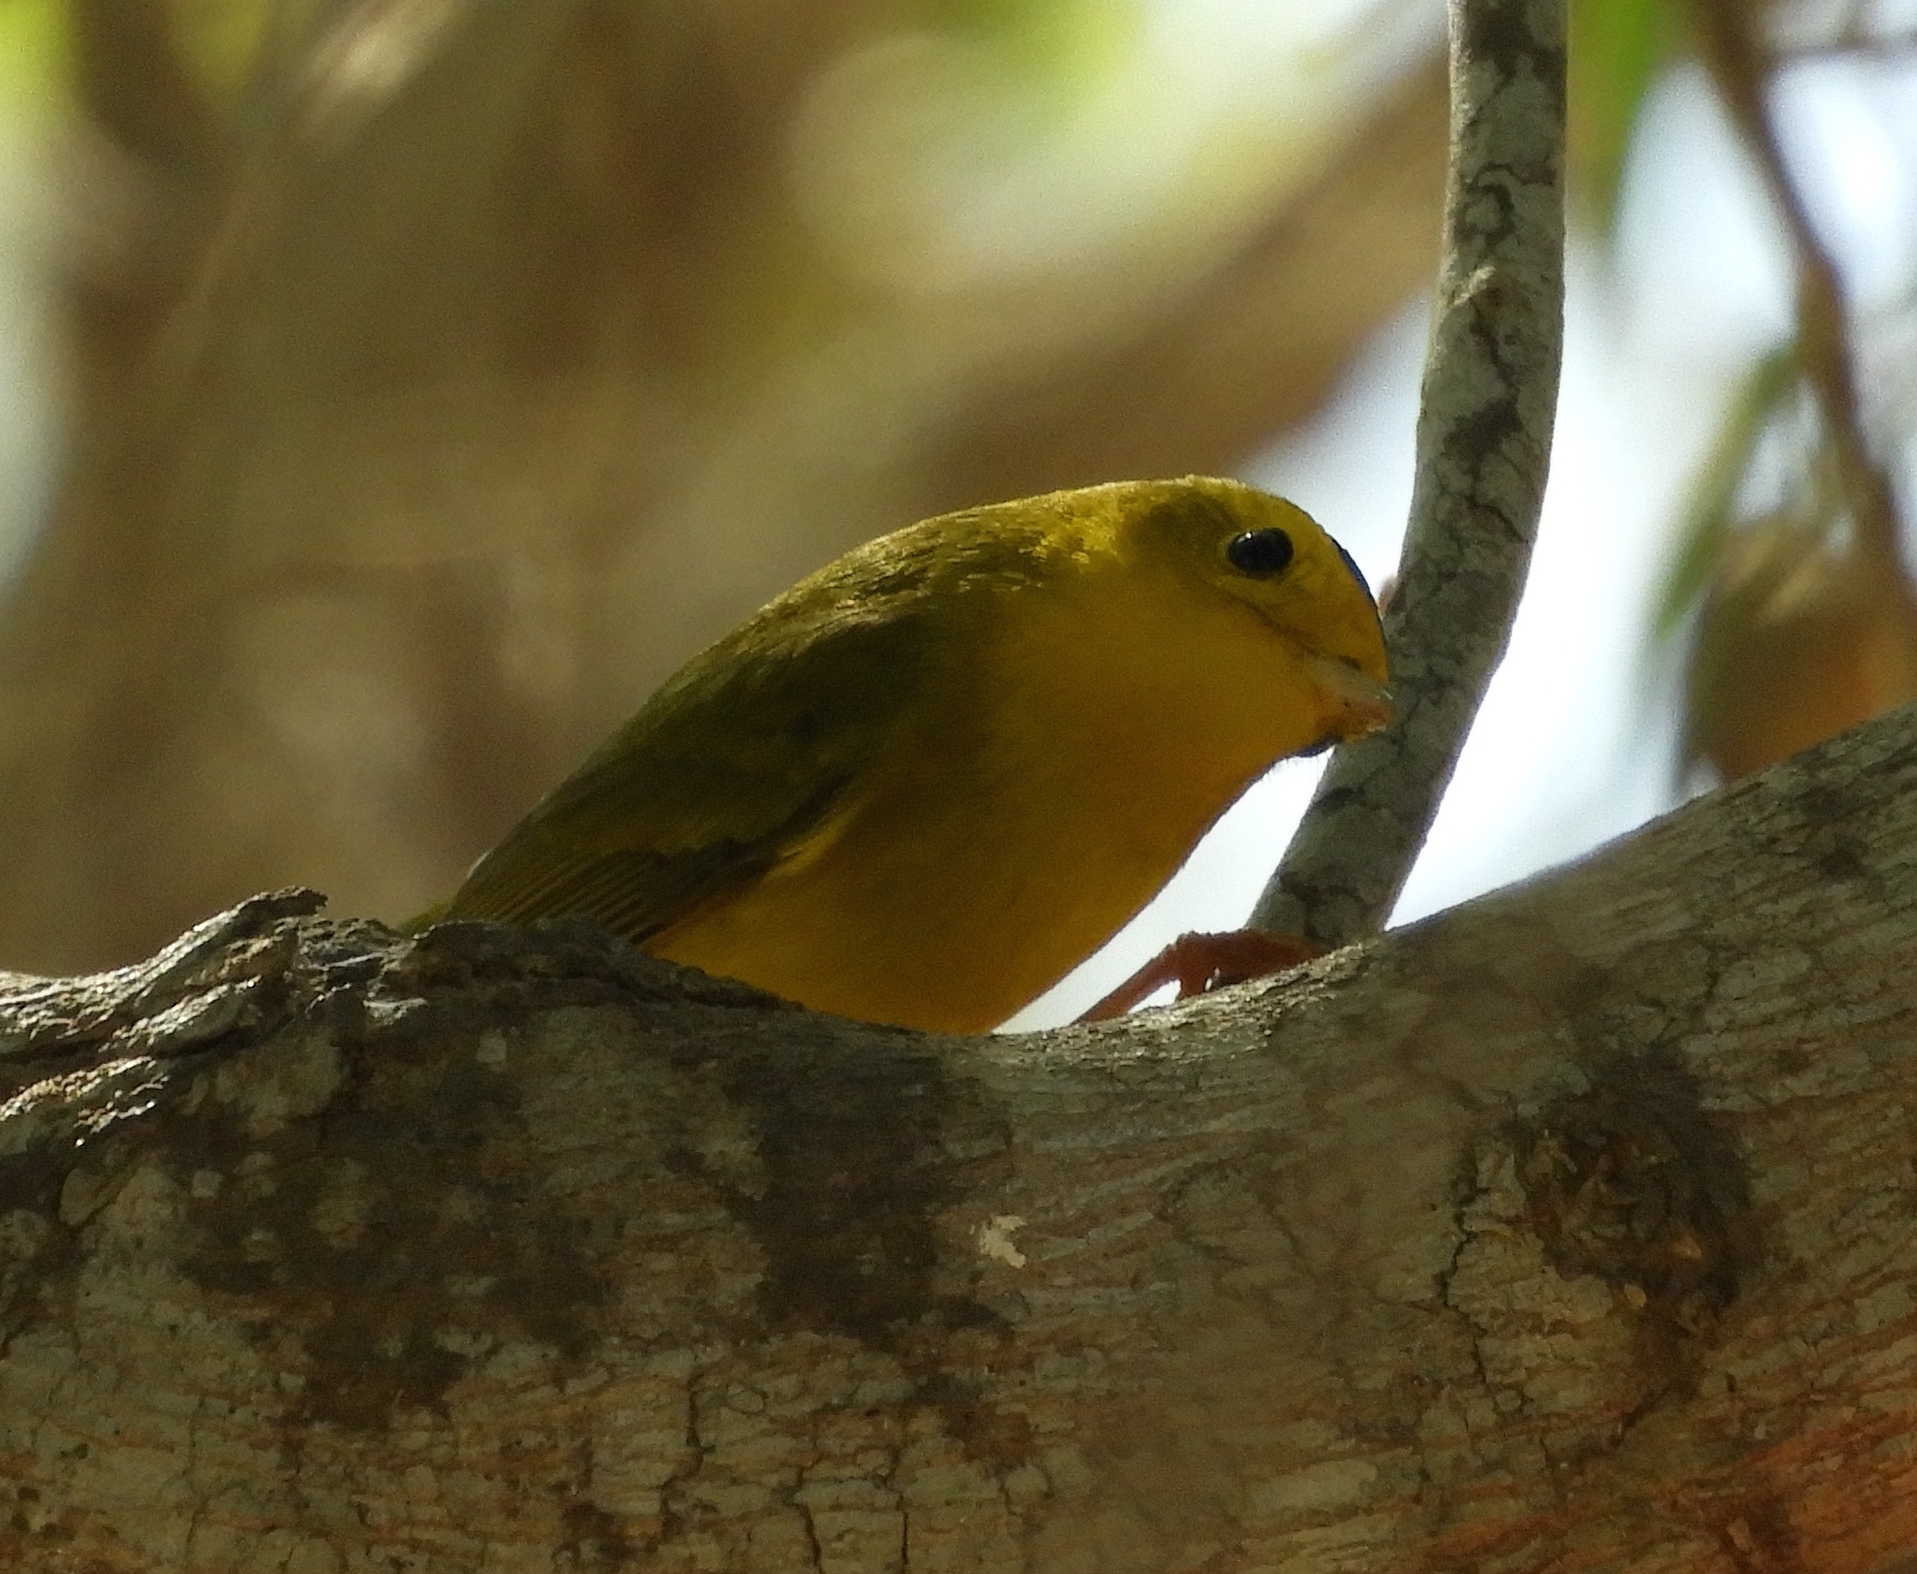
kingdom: Animalia
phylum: Chordata
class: Aves
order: Passeriformes
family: Parulidae
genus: Cardellina
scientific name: Cardellina pusilla
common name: Wilson's warbler
